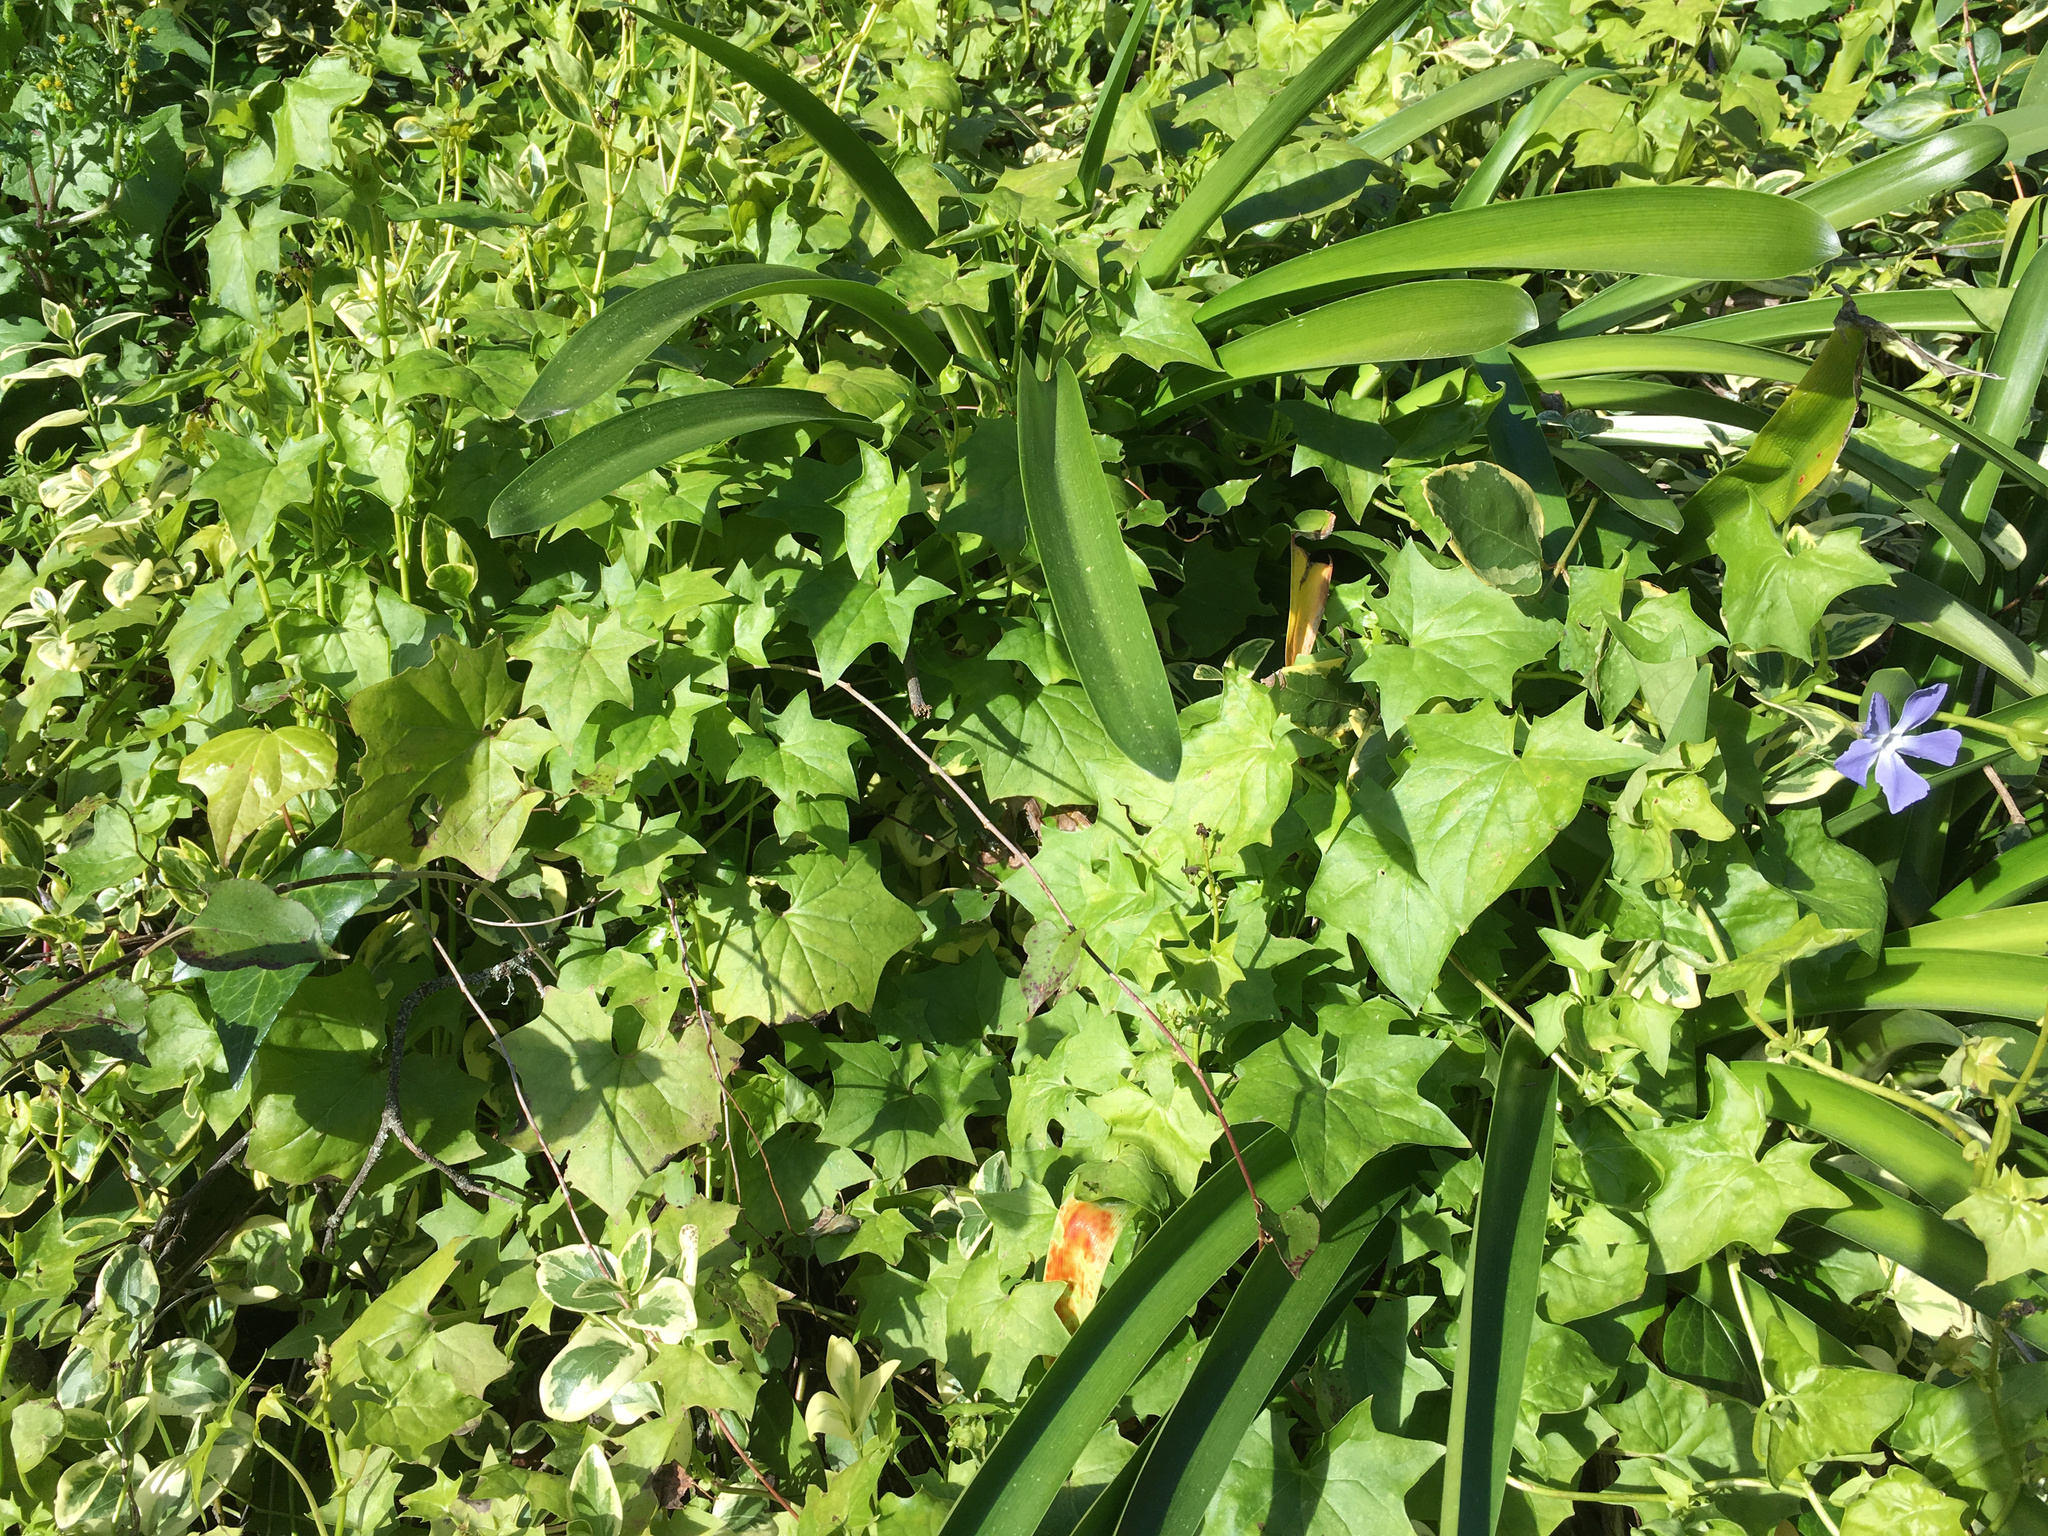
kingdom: Plantae
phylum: Tracheophyta
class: Magnoliopsida
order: Asterales
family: Asteraceae
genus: Delairea
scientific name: Delairea odorata
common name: Cape-ivy
